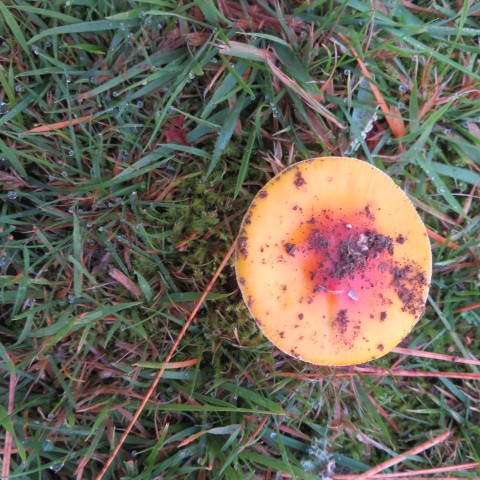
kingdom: Fungi
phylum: Basidiomycota
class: Agaricomycetes
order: Agaricales
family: Amanitaceae
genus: Amanita
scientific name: Amanita muscaria
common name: Fly agaric
